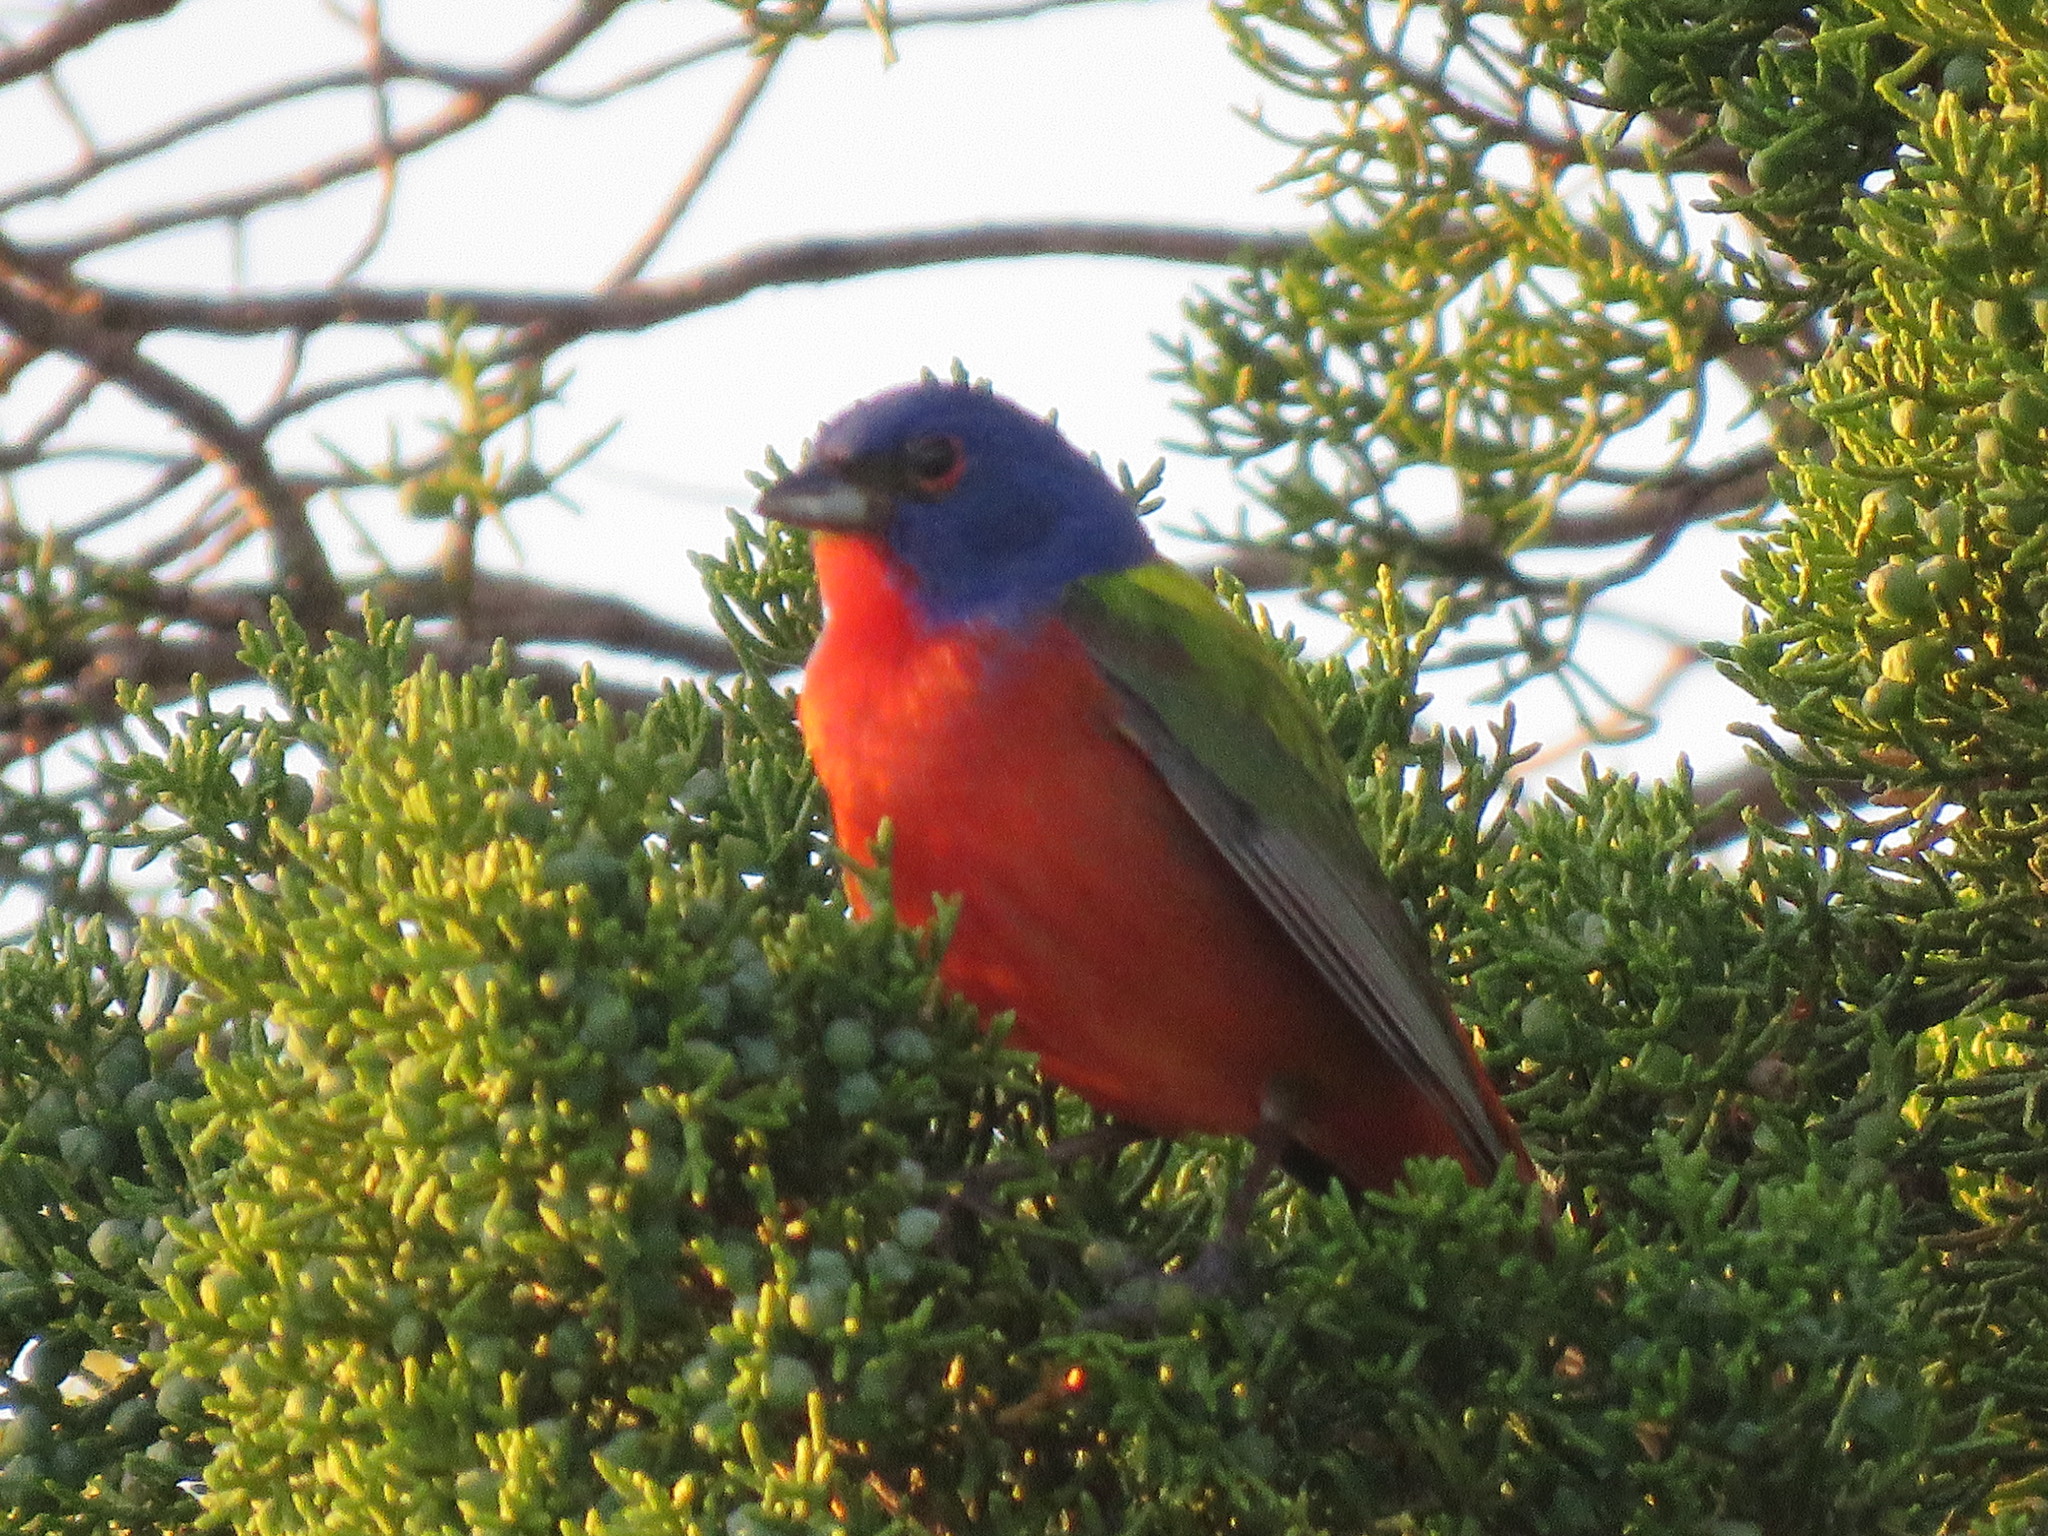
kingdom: Animalia
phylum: Chordata
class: Aves
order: Passeriformes
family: Cardinalidae
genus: Passerina
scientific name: Passerina ciris
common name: Painted bunting
